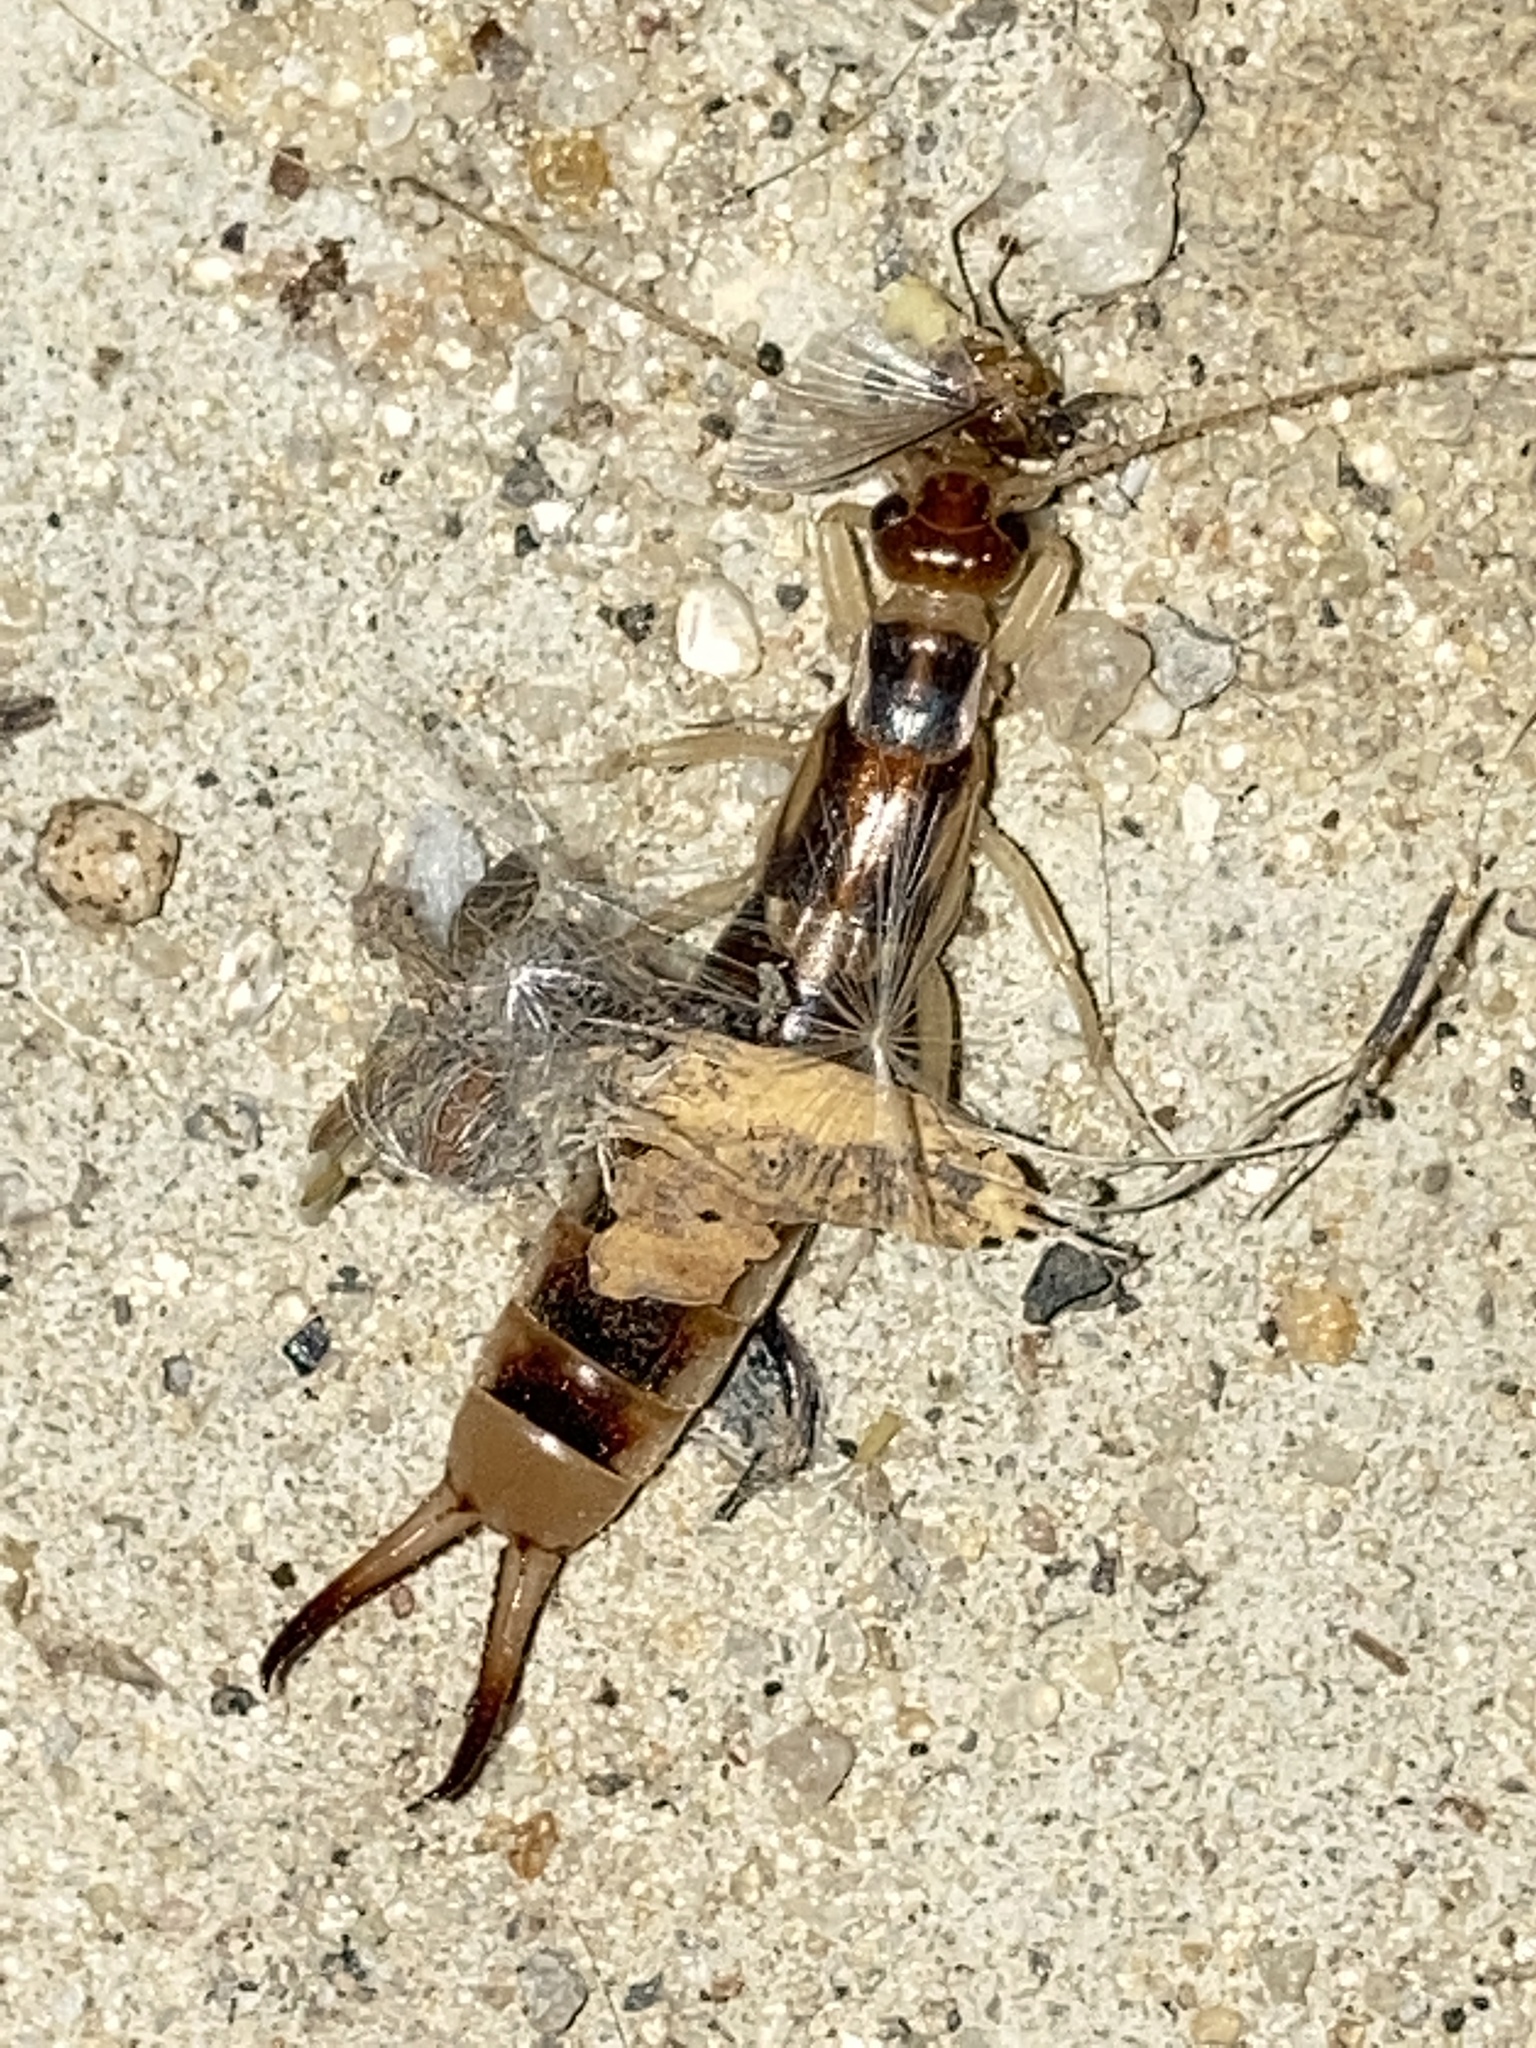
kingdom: Animalia
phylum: Arthropoda
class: Insecta
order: Dermaptera
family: Labiduridae
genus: Labidura
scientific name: Labidura riparia
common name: Striped earwig
